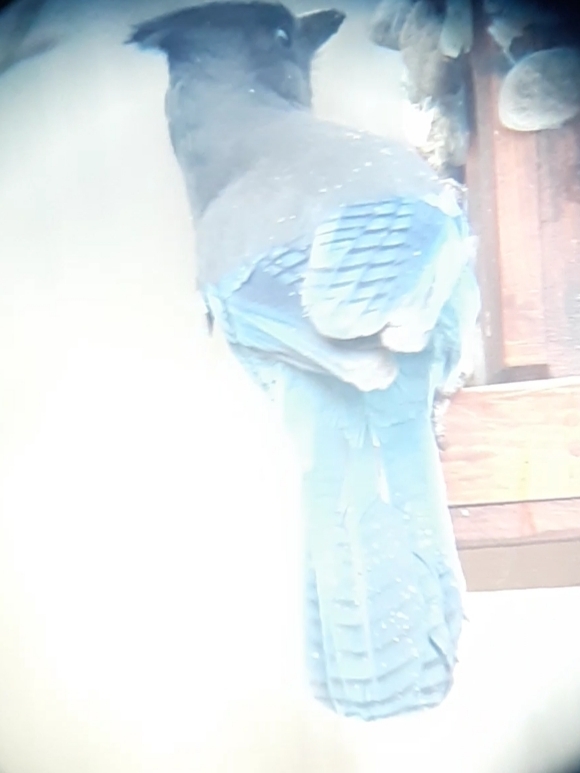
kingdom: Animalia
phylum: Chordata
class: Aves
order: Passeriformes
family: Corvidae
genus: Cyanocitta
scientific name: Cyanocitta stelleri
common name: Steller's jay
